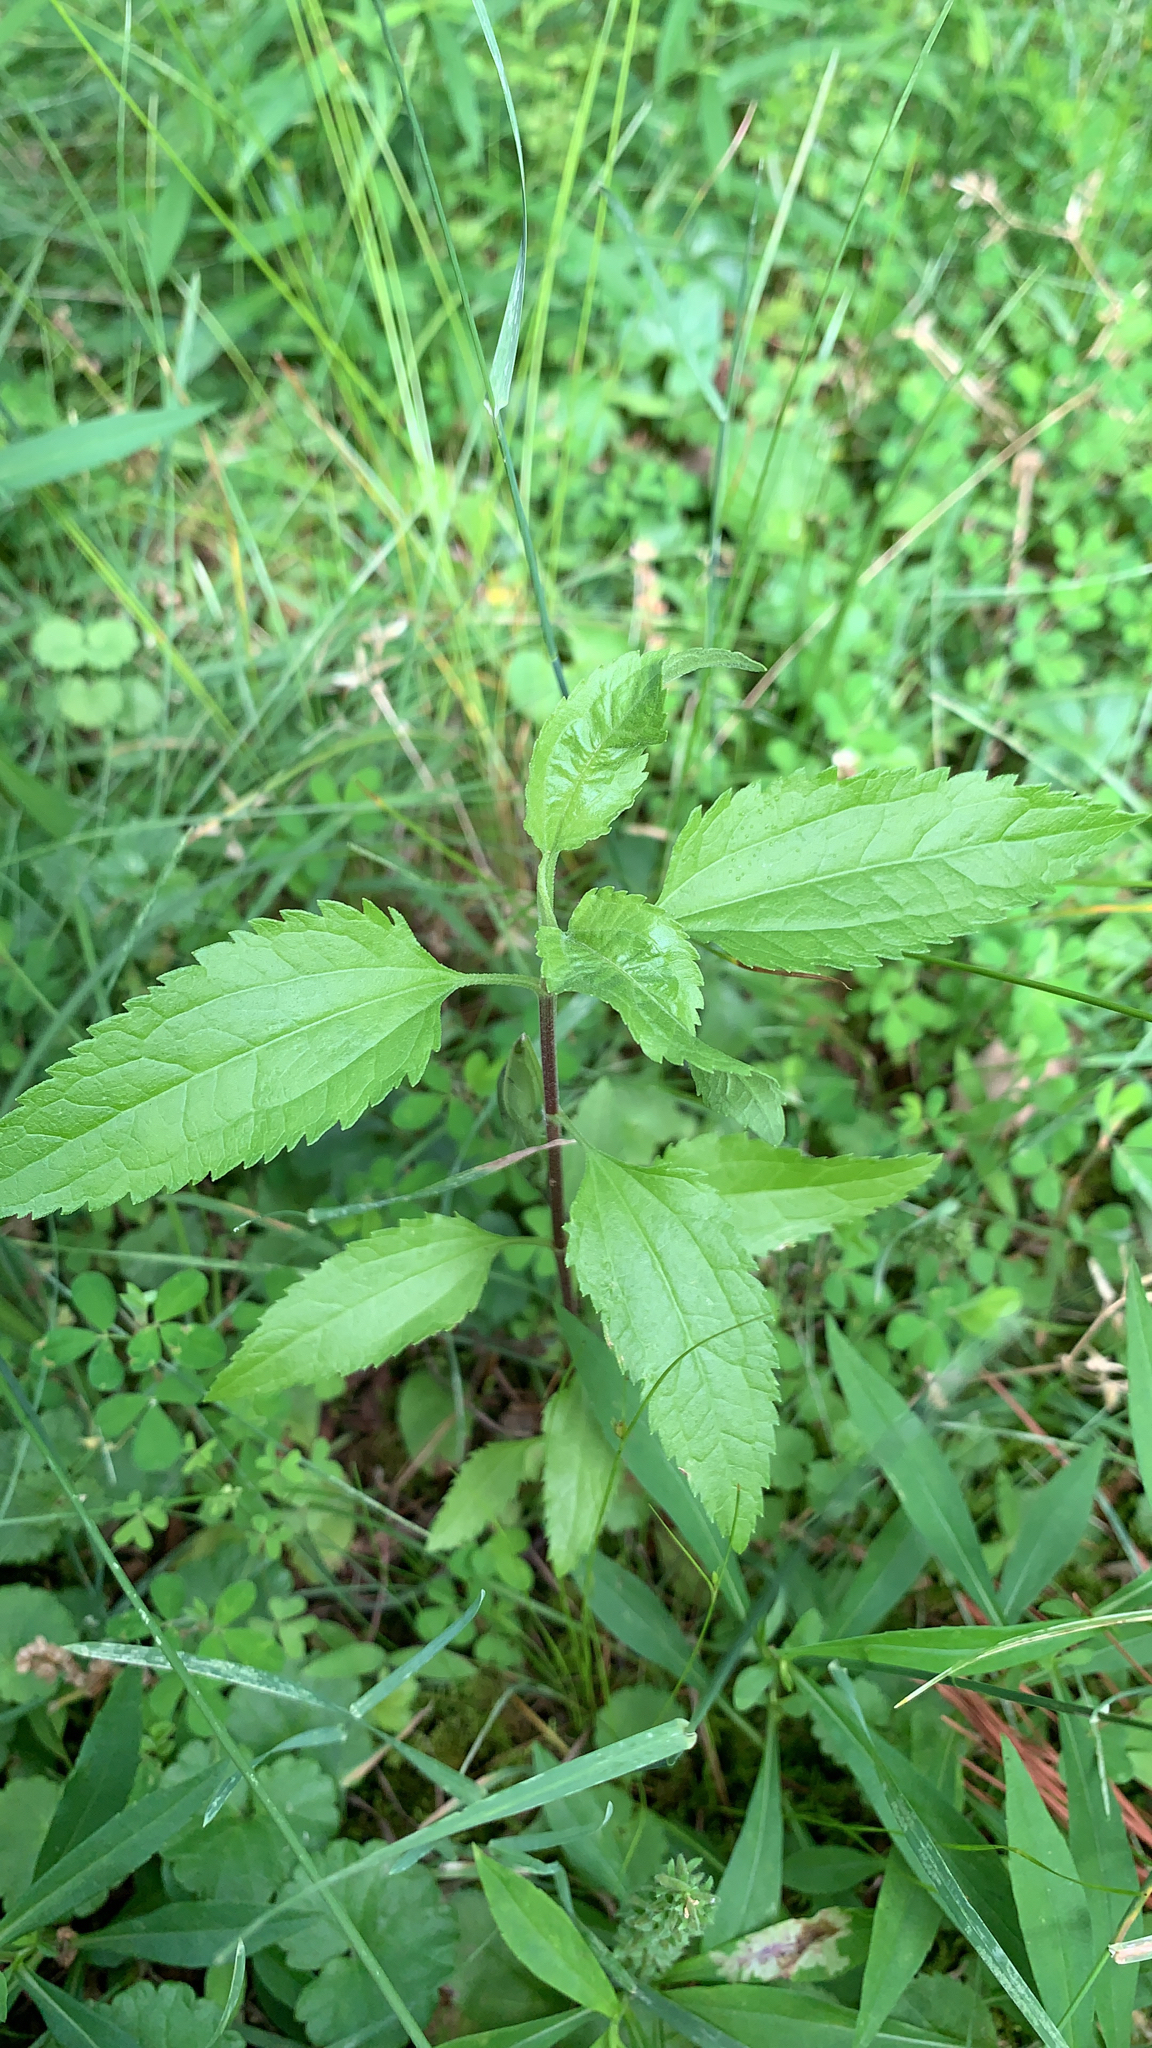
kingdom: Plantae
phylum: Tracheophyta
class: Magnoliopsida
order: Asterales
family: Asteraceae
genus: Eupatorium
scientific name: Eupatorium serotinum
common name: Late boneset
